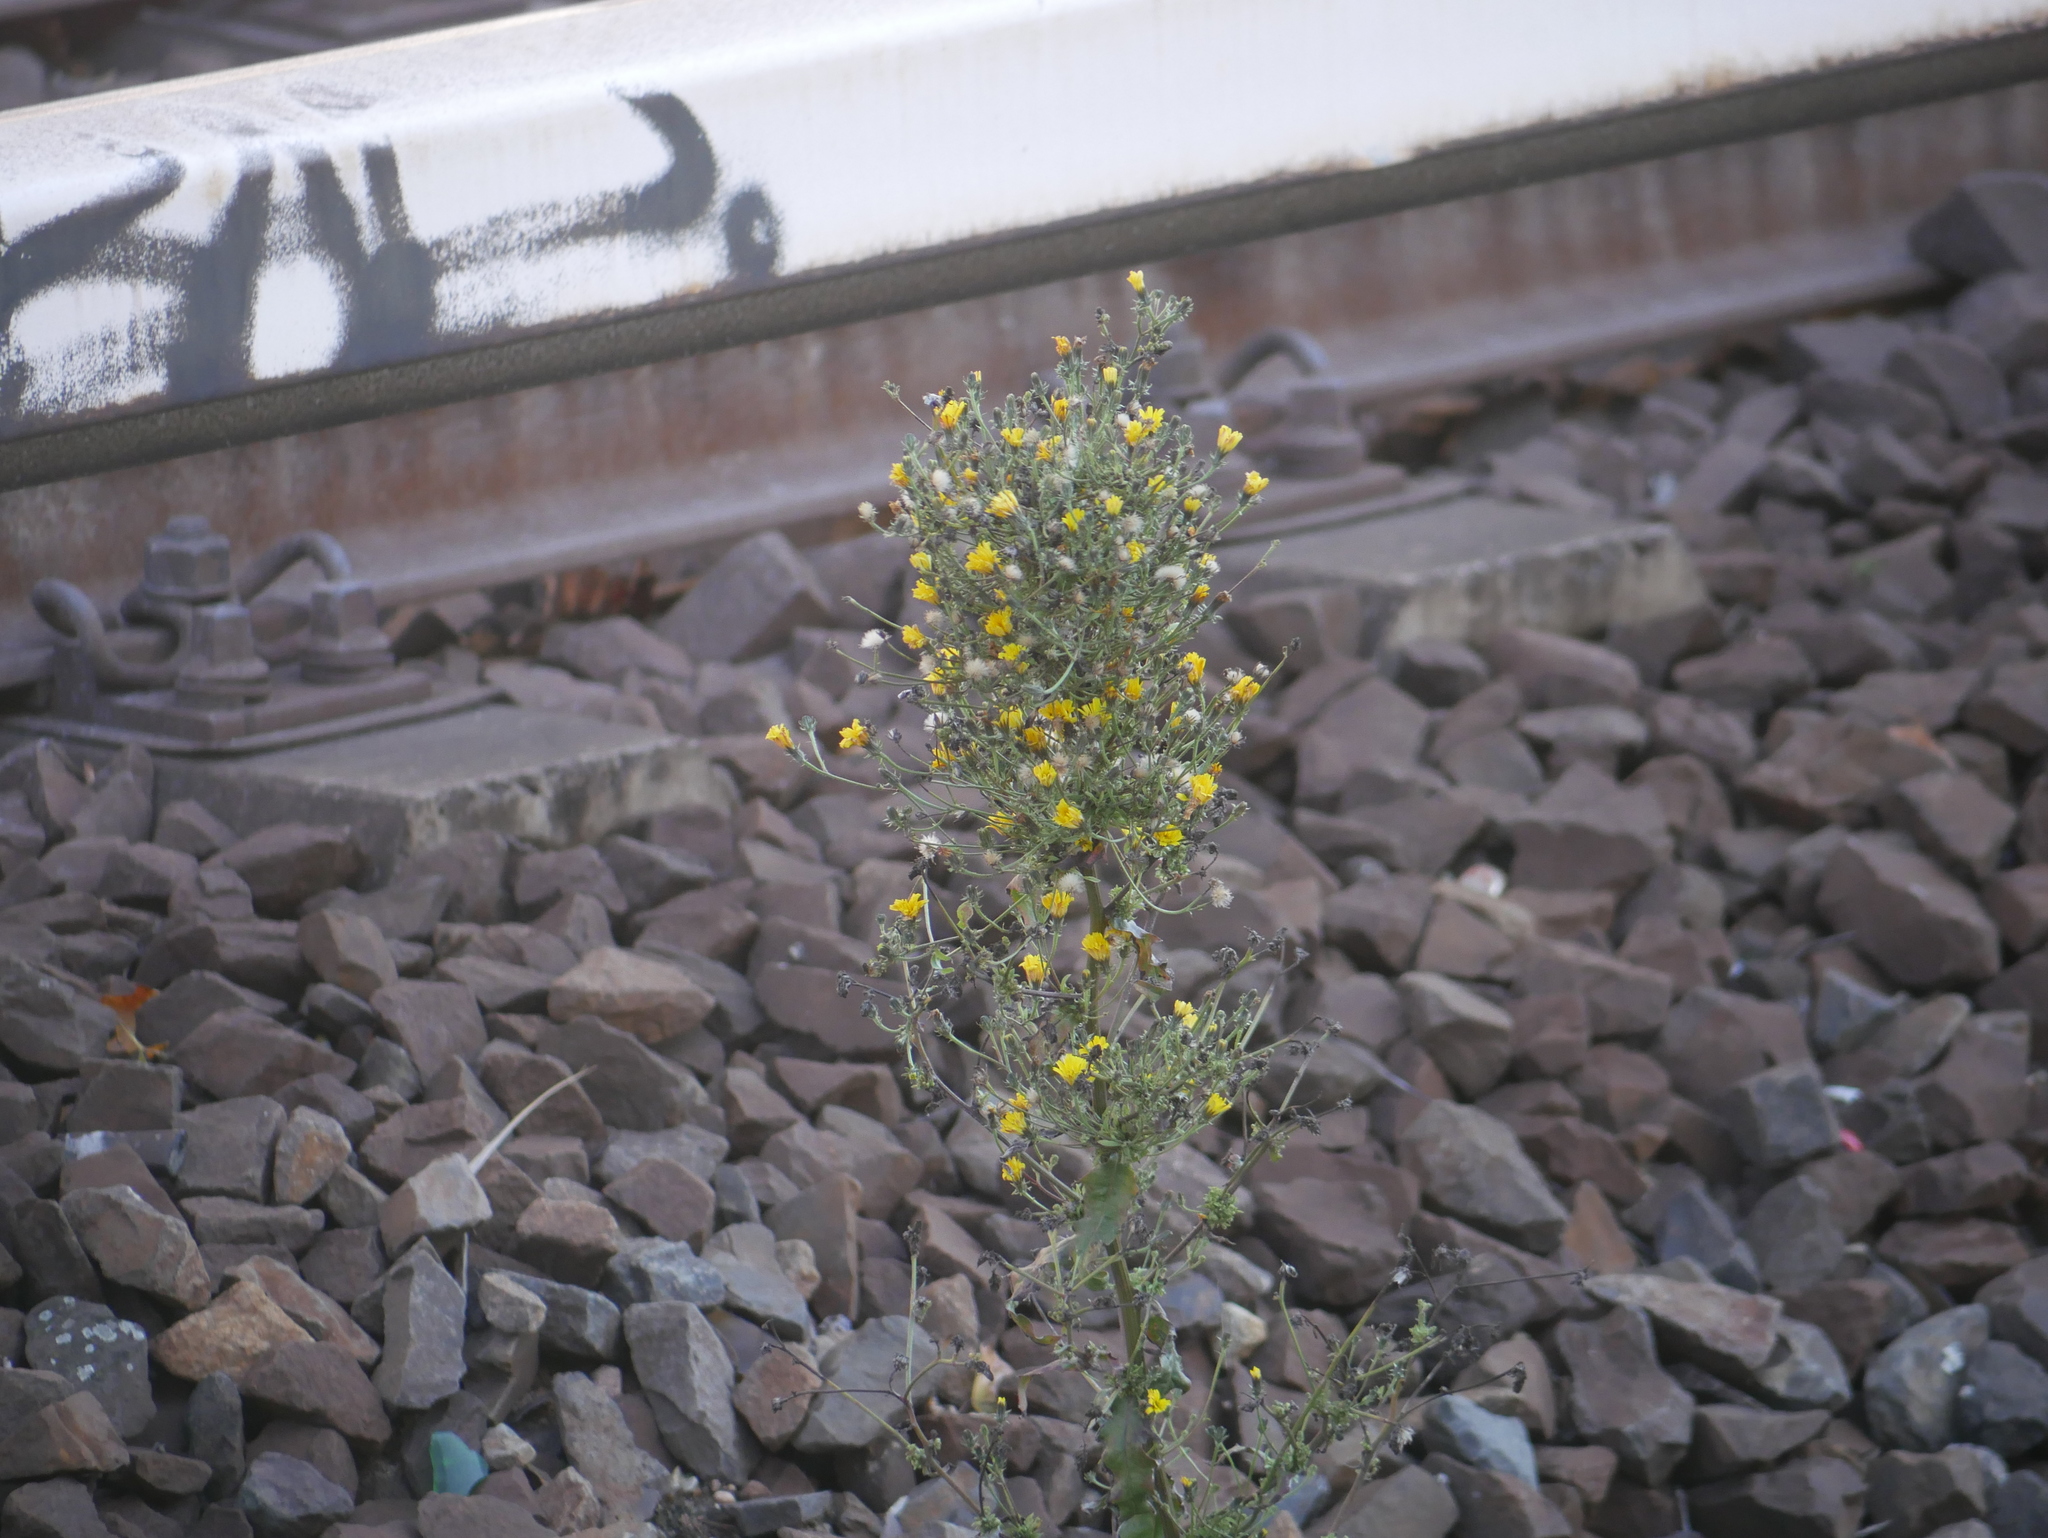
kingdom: Plantae
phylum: Tracheophyta
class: Magnoliopsida
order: Asterales
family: Asteraceae
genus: Picris
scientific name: Picris hieracioides
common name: Hawkweed oxtongue
